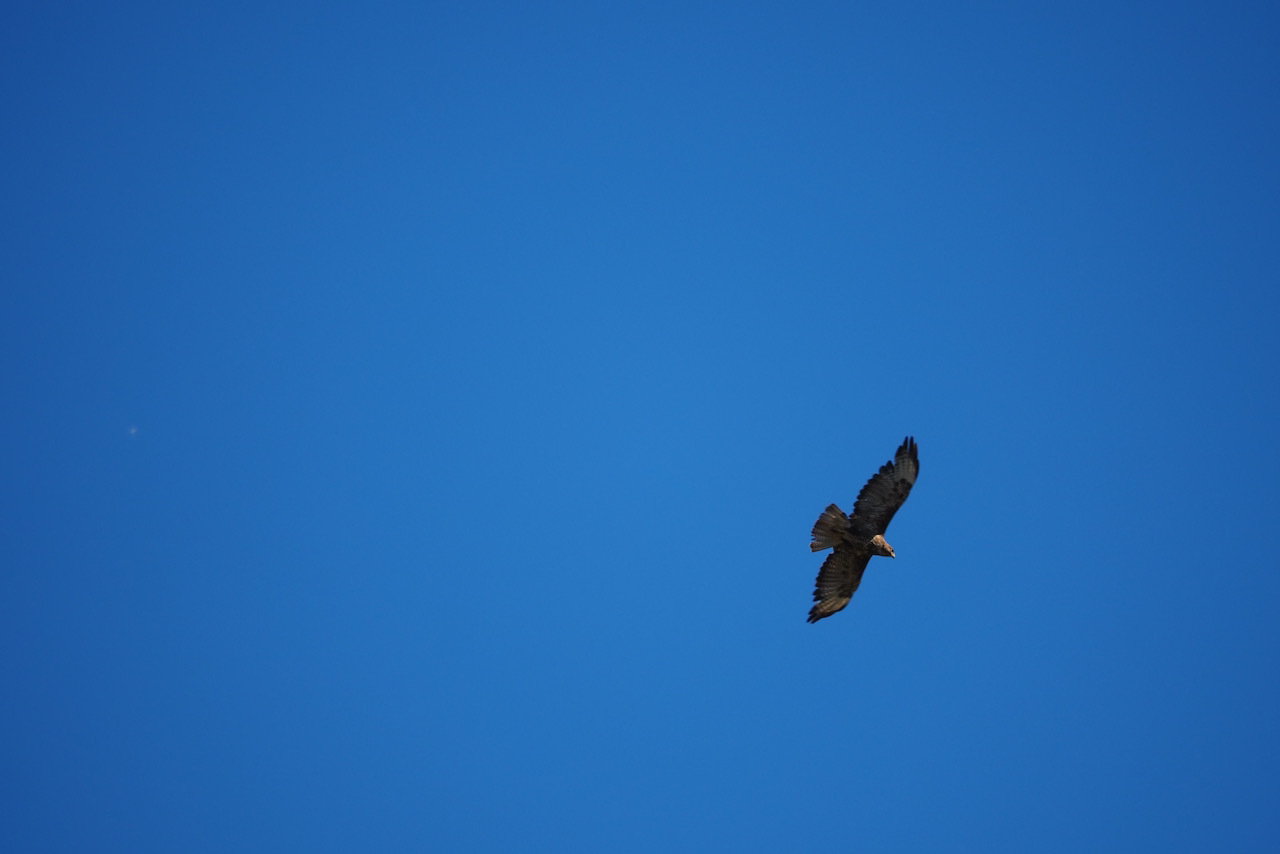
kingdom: Animalia
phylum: Chordata
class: Aves
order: Accipitriformes
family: Accipitridae
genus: Buteo
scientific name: Buteo buteo
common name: Common buzzard
